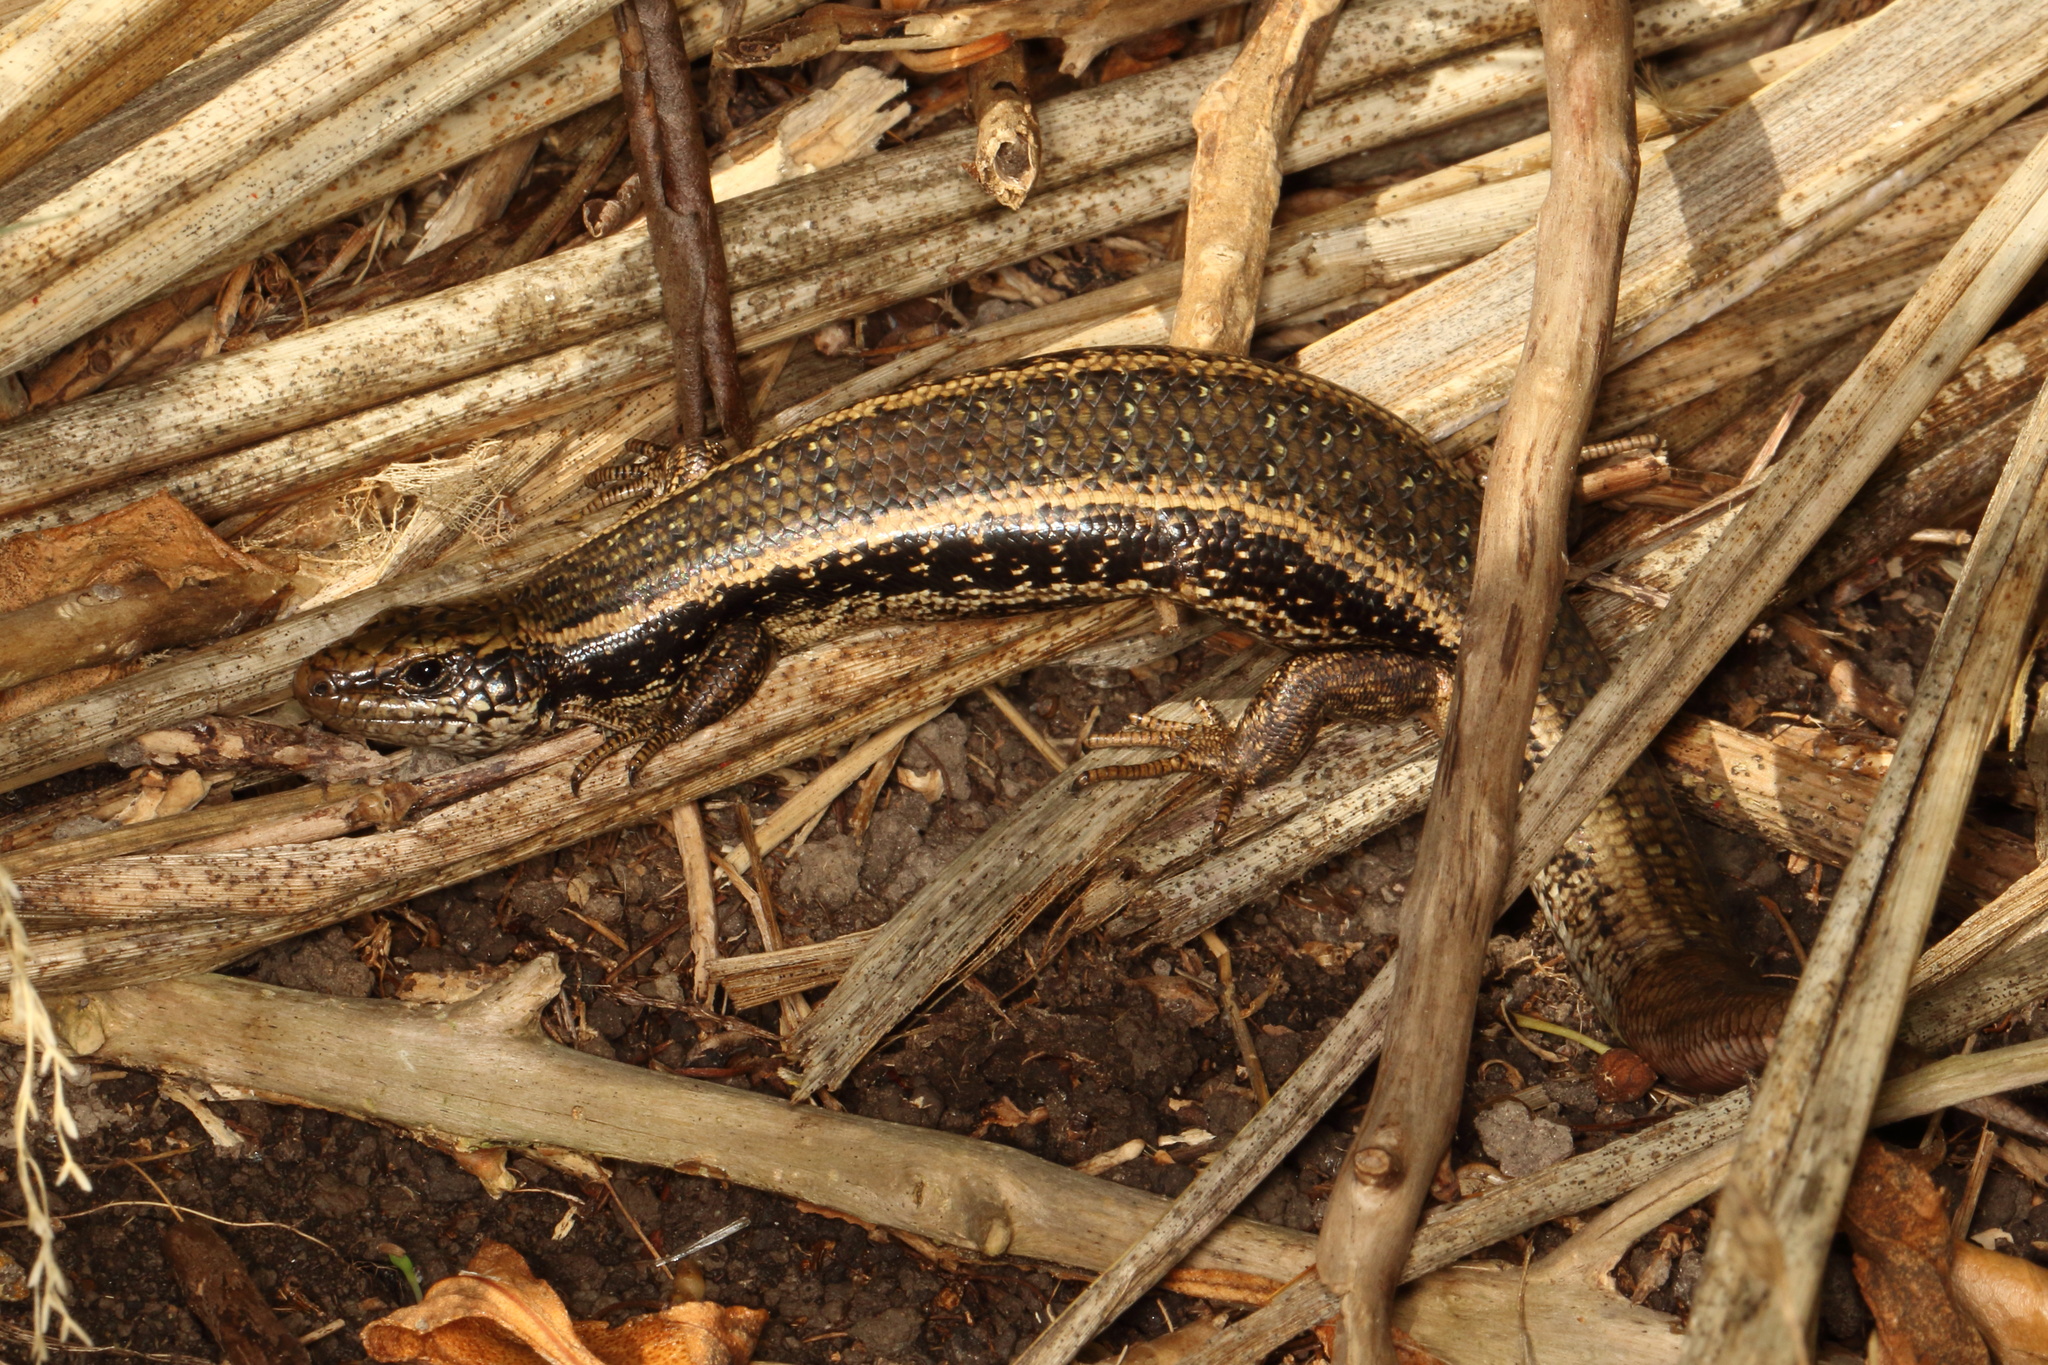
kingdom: Animalia
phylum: Chordata
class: Squamata
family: Scincidae
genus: Oligosoma
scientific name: Oligosoma kokowai
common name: Northern spotted skink
